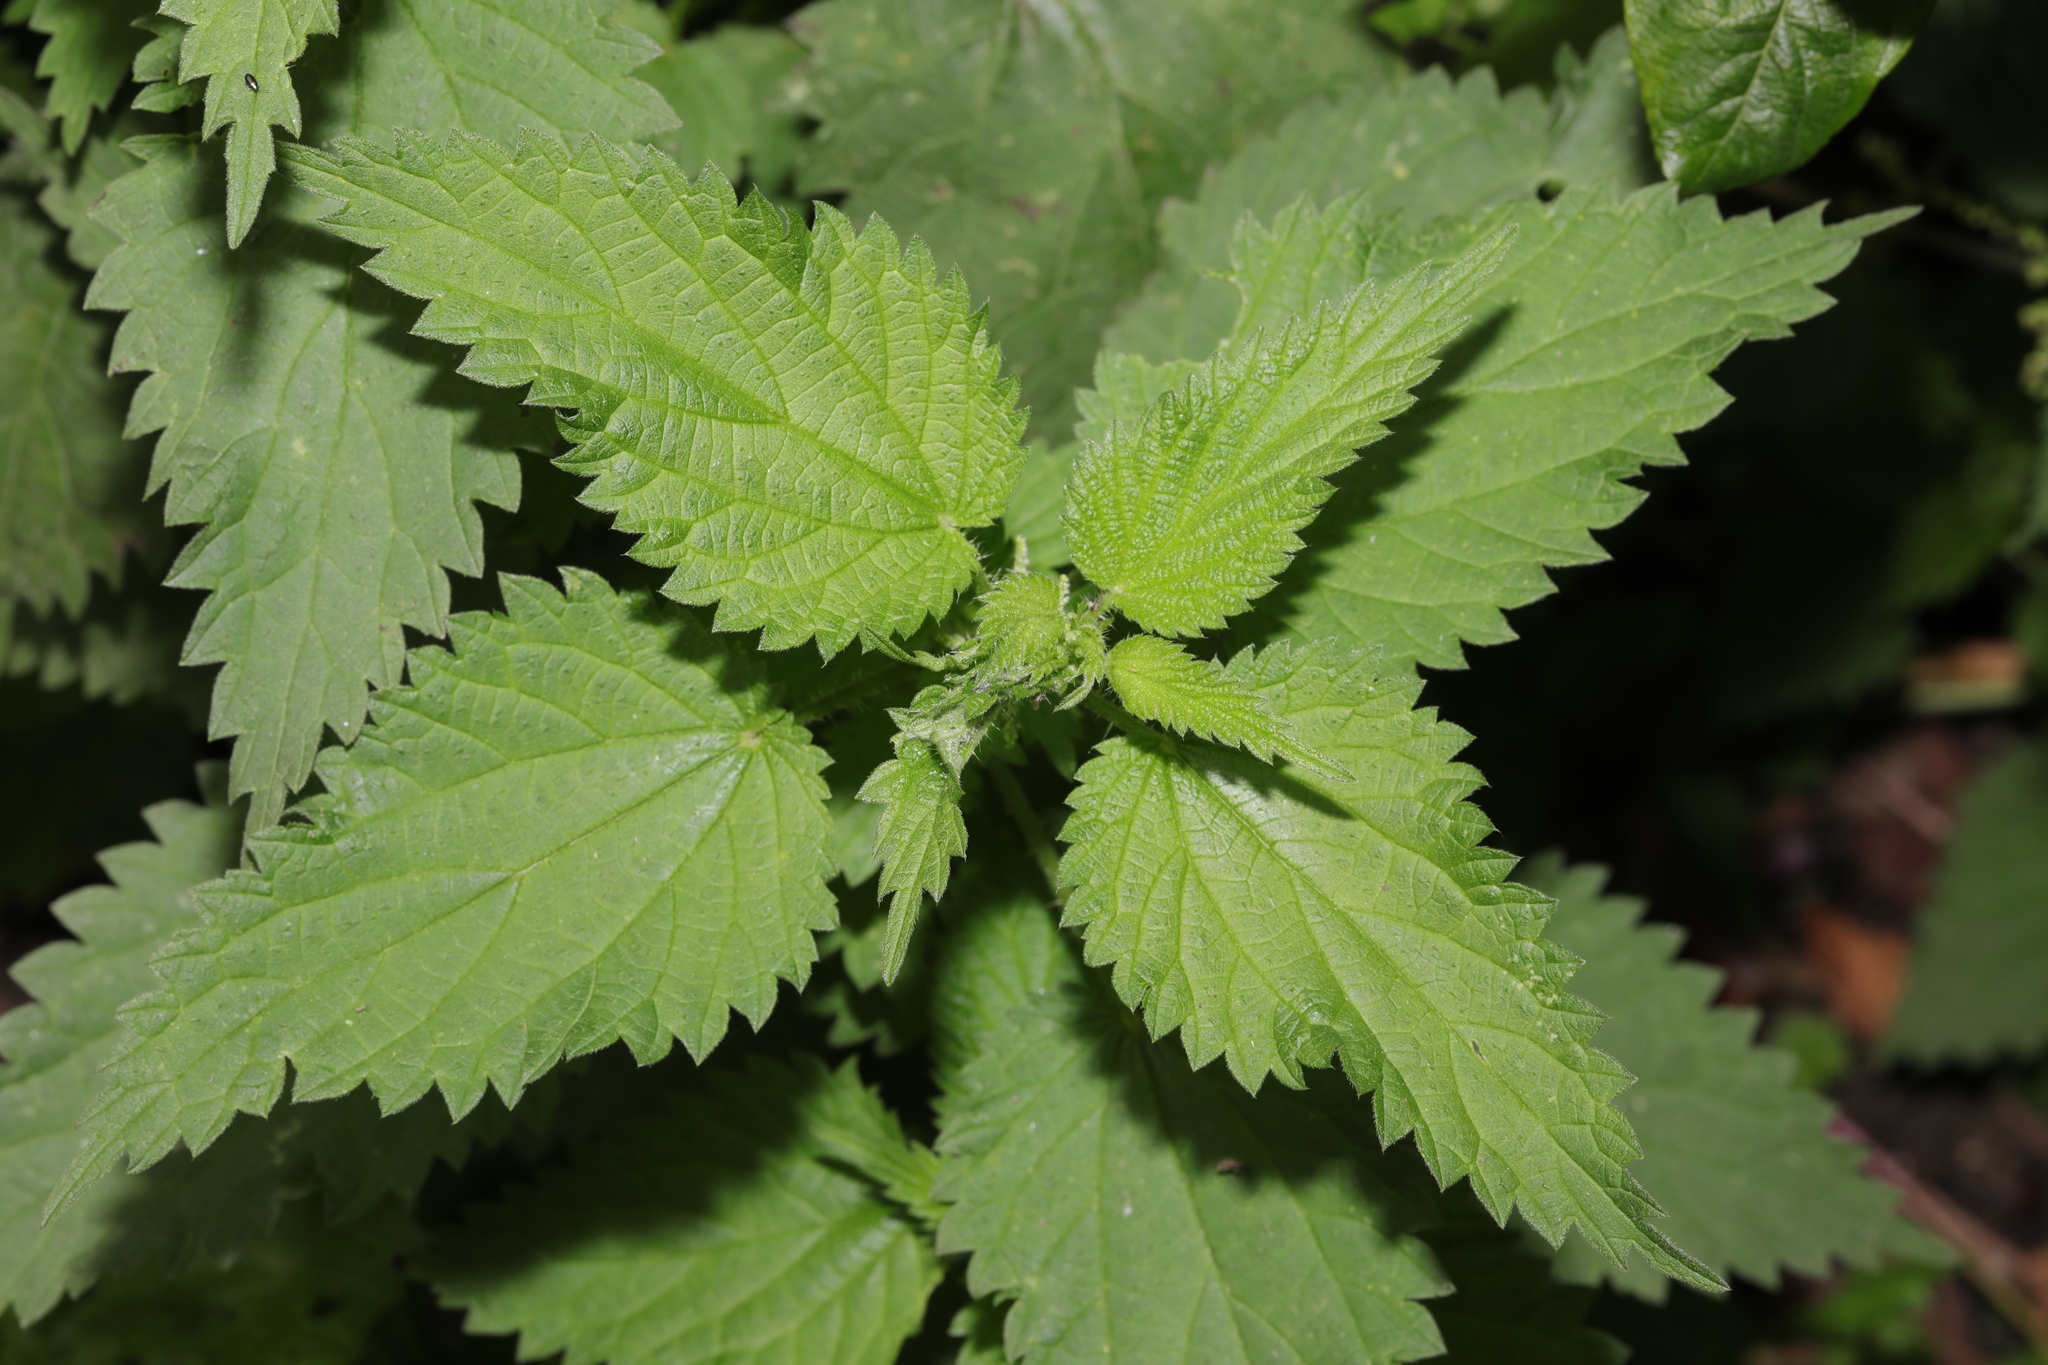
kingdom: Plantae
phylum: Tracheophyta
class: Magnoliopsida
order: Rosales
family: Urticaceae
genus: Urtica
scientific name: Urtica dioica
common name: Common nettle
